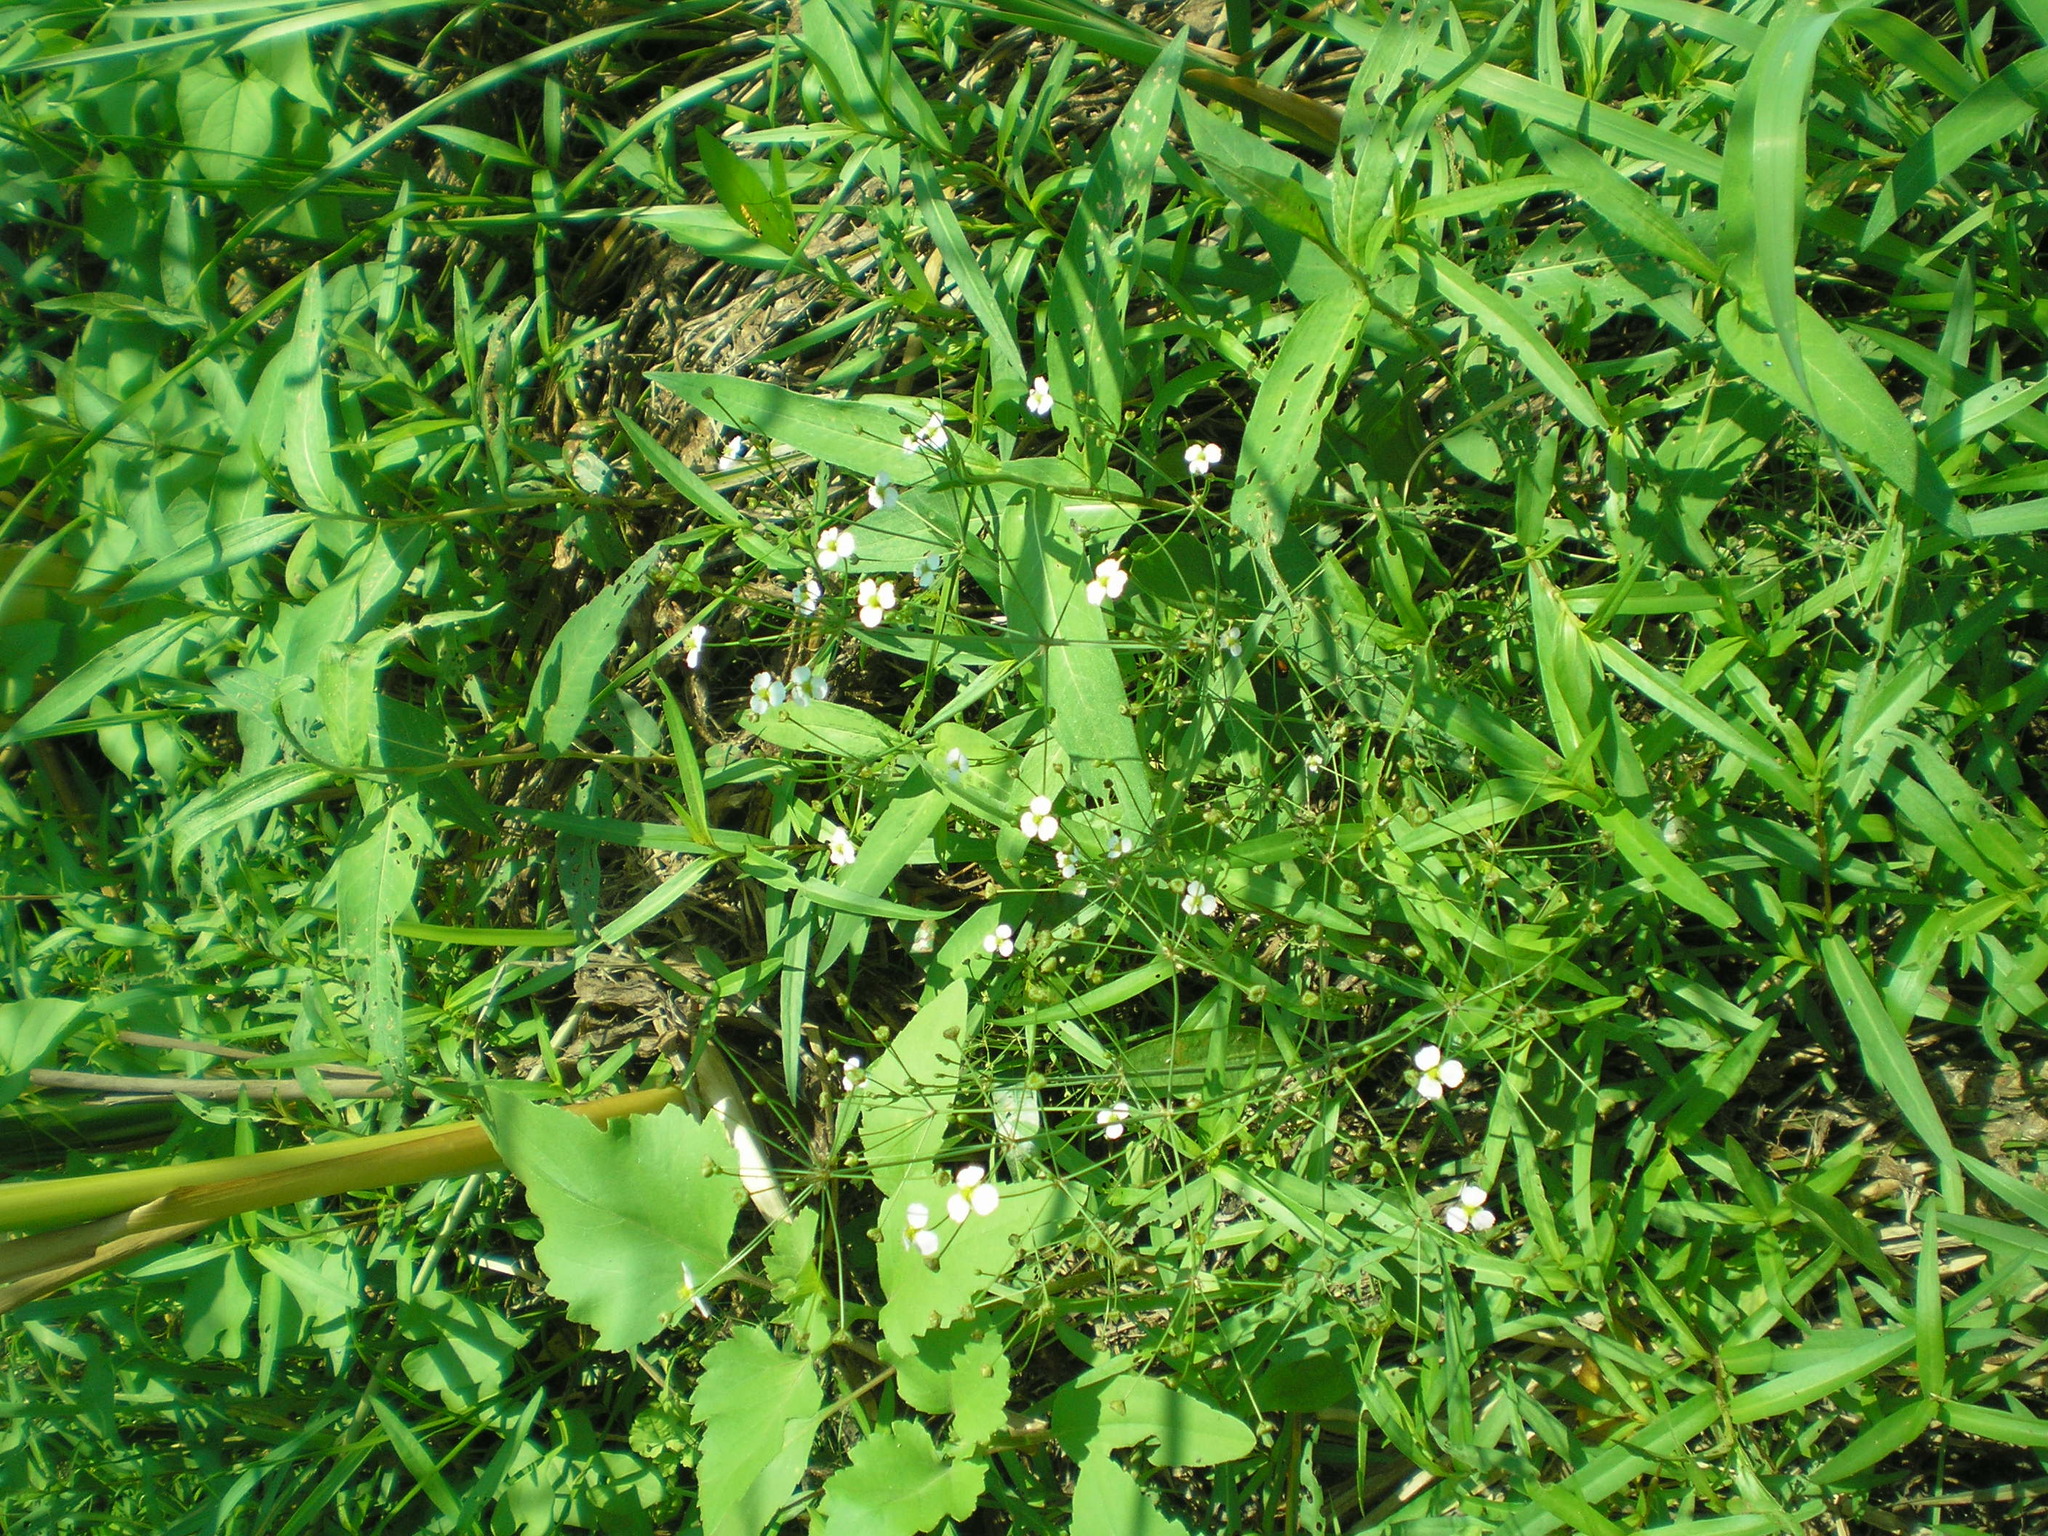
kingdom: Plantae
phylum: Tracheophyta
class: Liliopsida
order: Alismatales
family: Alismataceae
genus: Alisma
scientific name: Alisma plantago-aquatica
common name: Water-plantain
